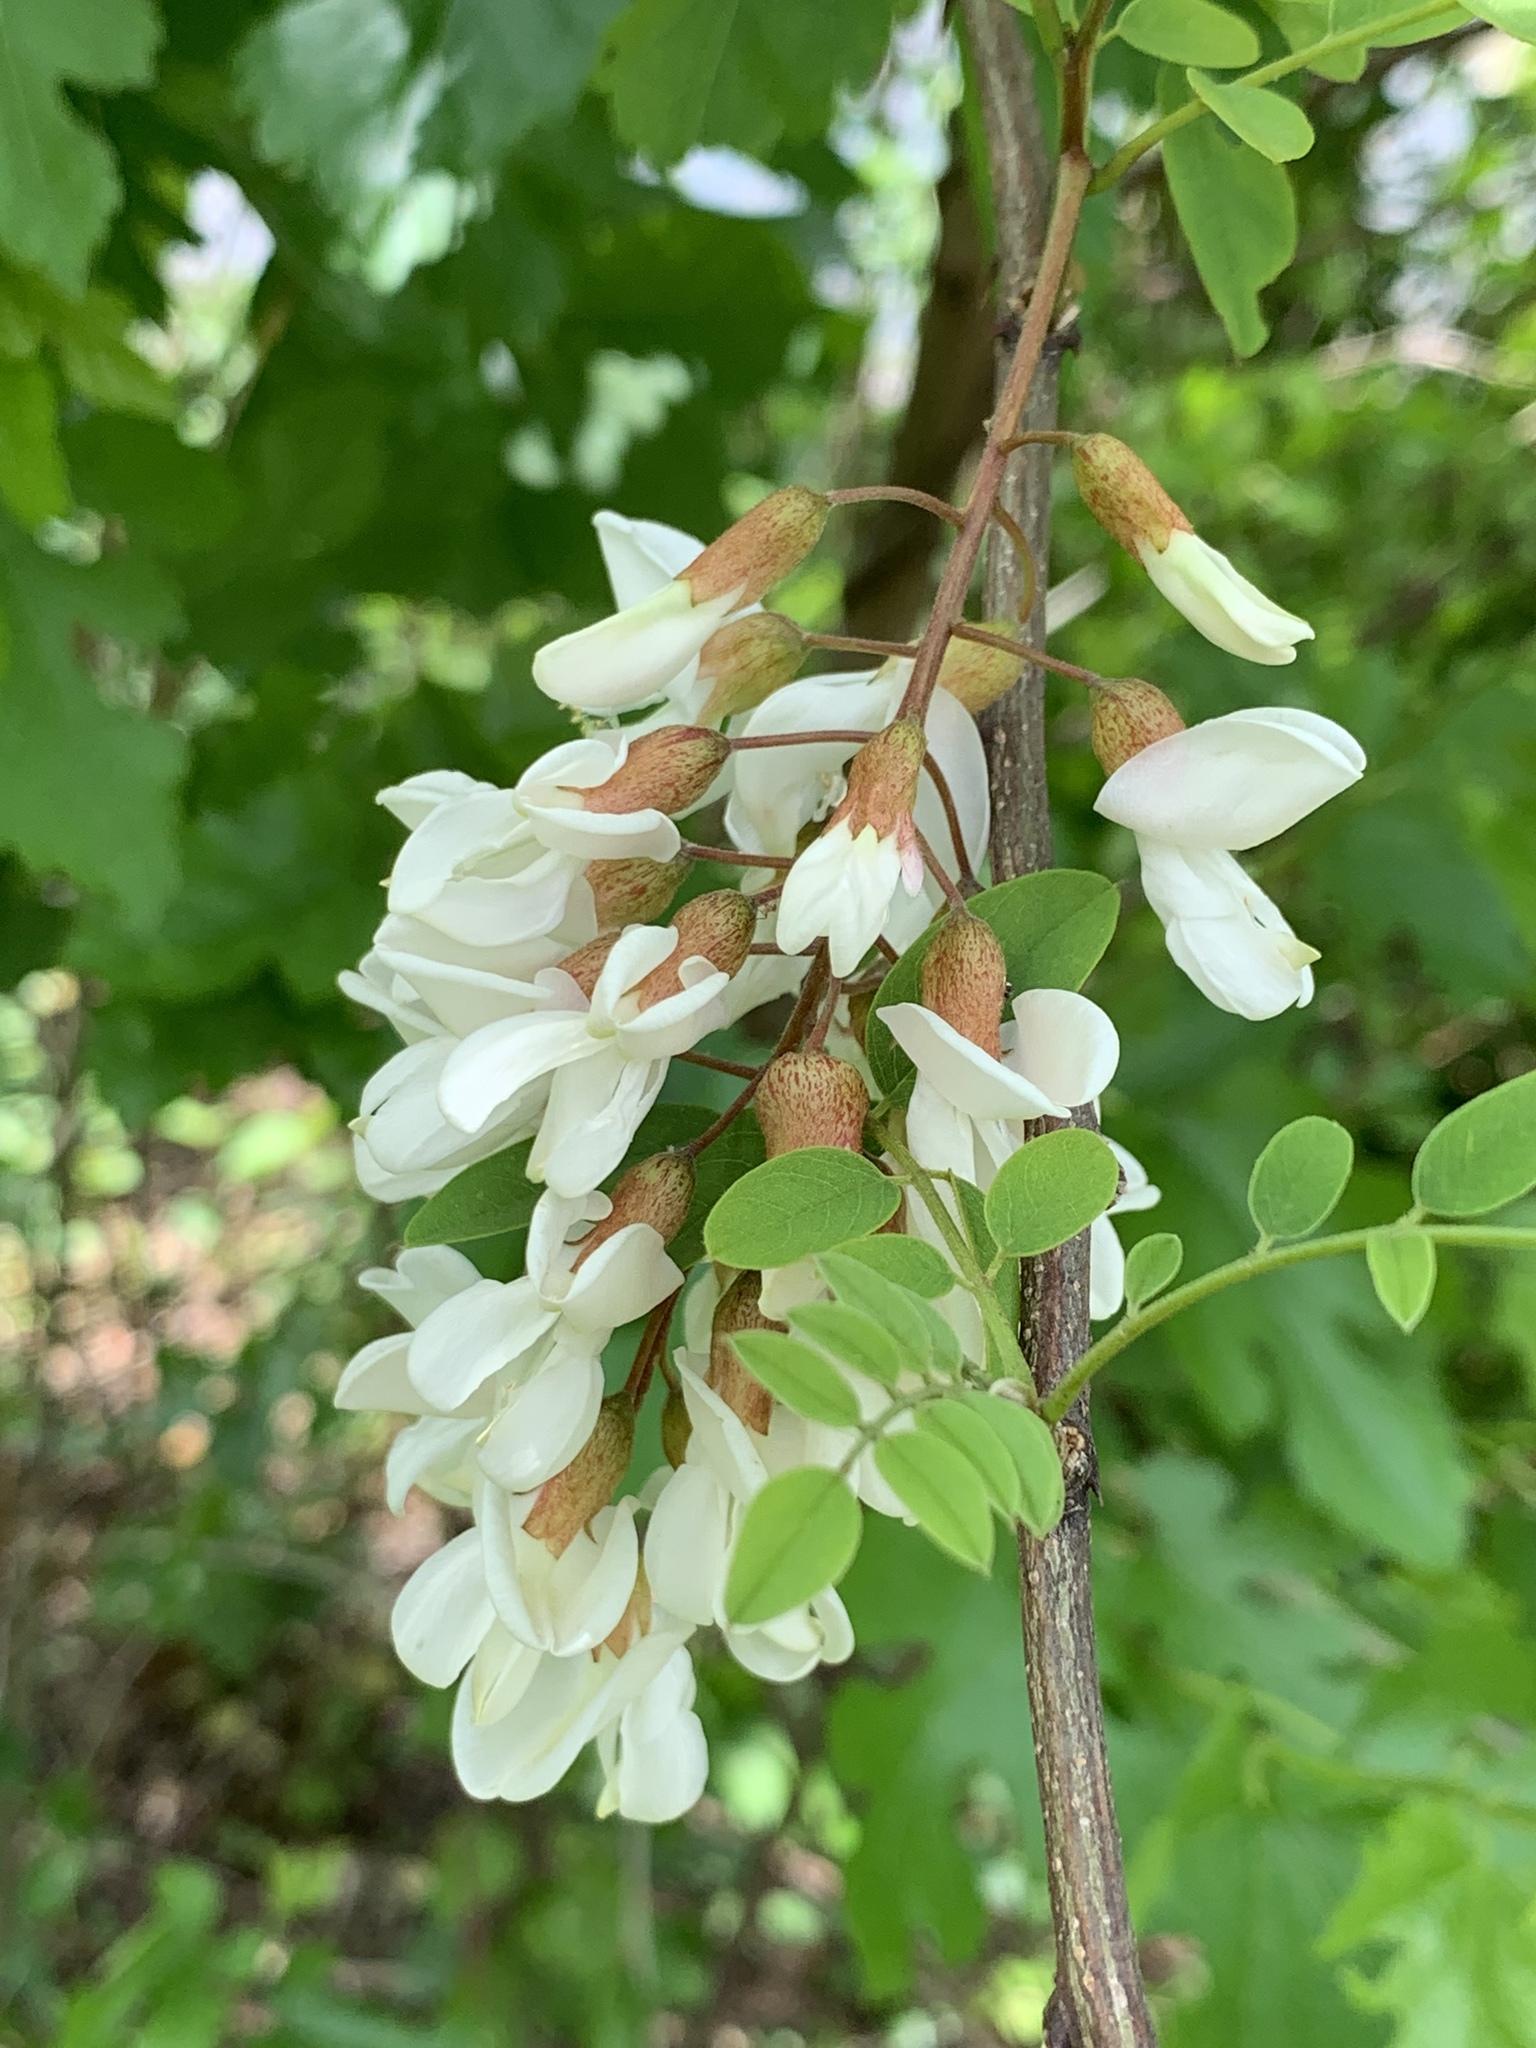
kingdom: Plantae
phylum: Tracheophyta
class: Magnoliopsida
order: Fabales
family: Fabaceae
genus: Robinia
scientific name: Robinia pseudoacacia
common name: Black locust
